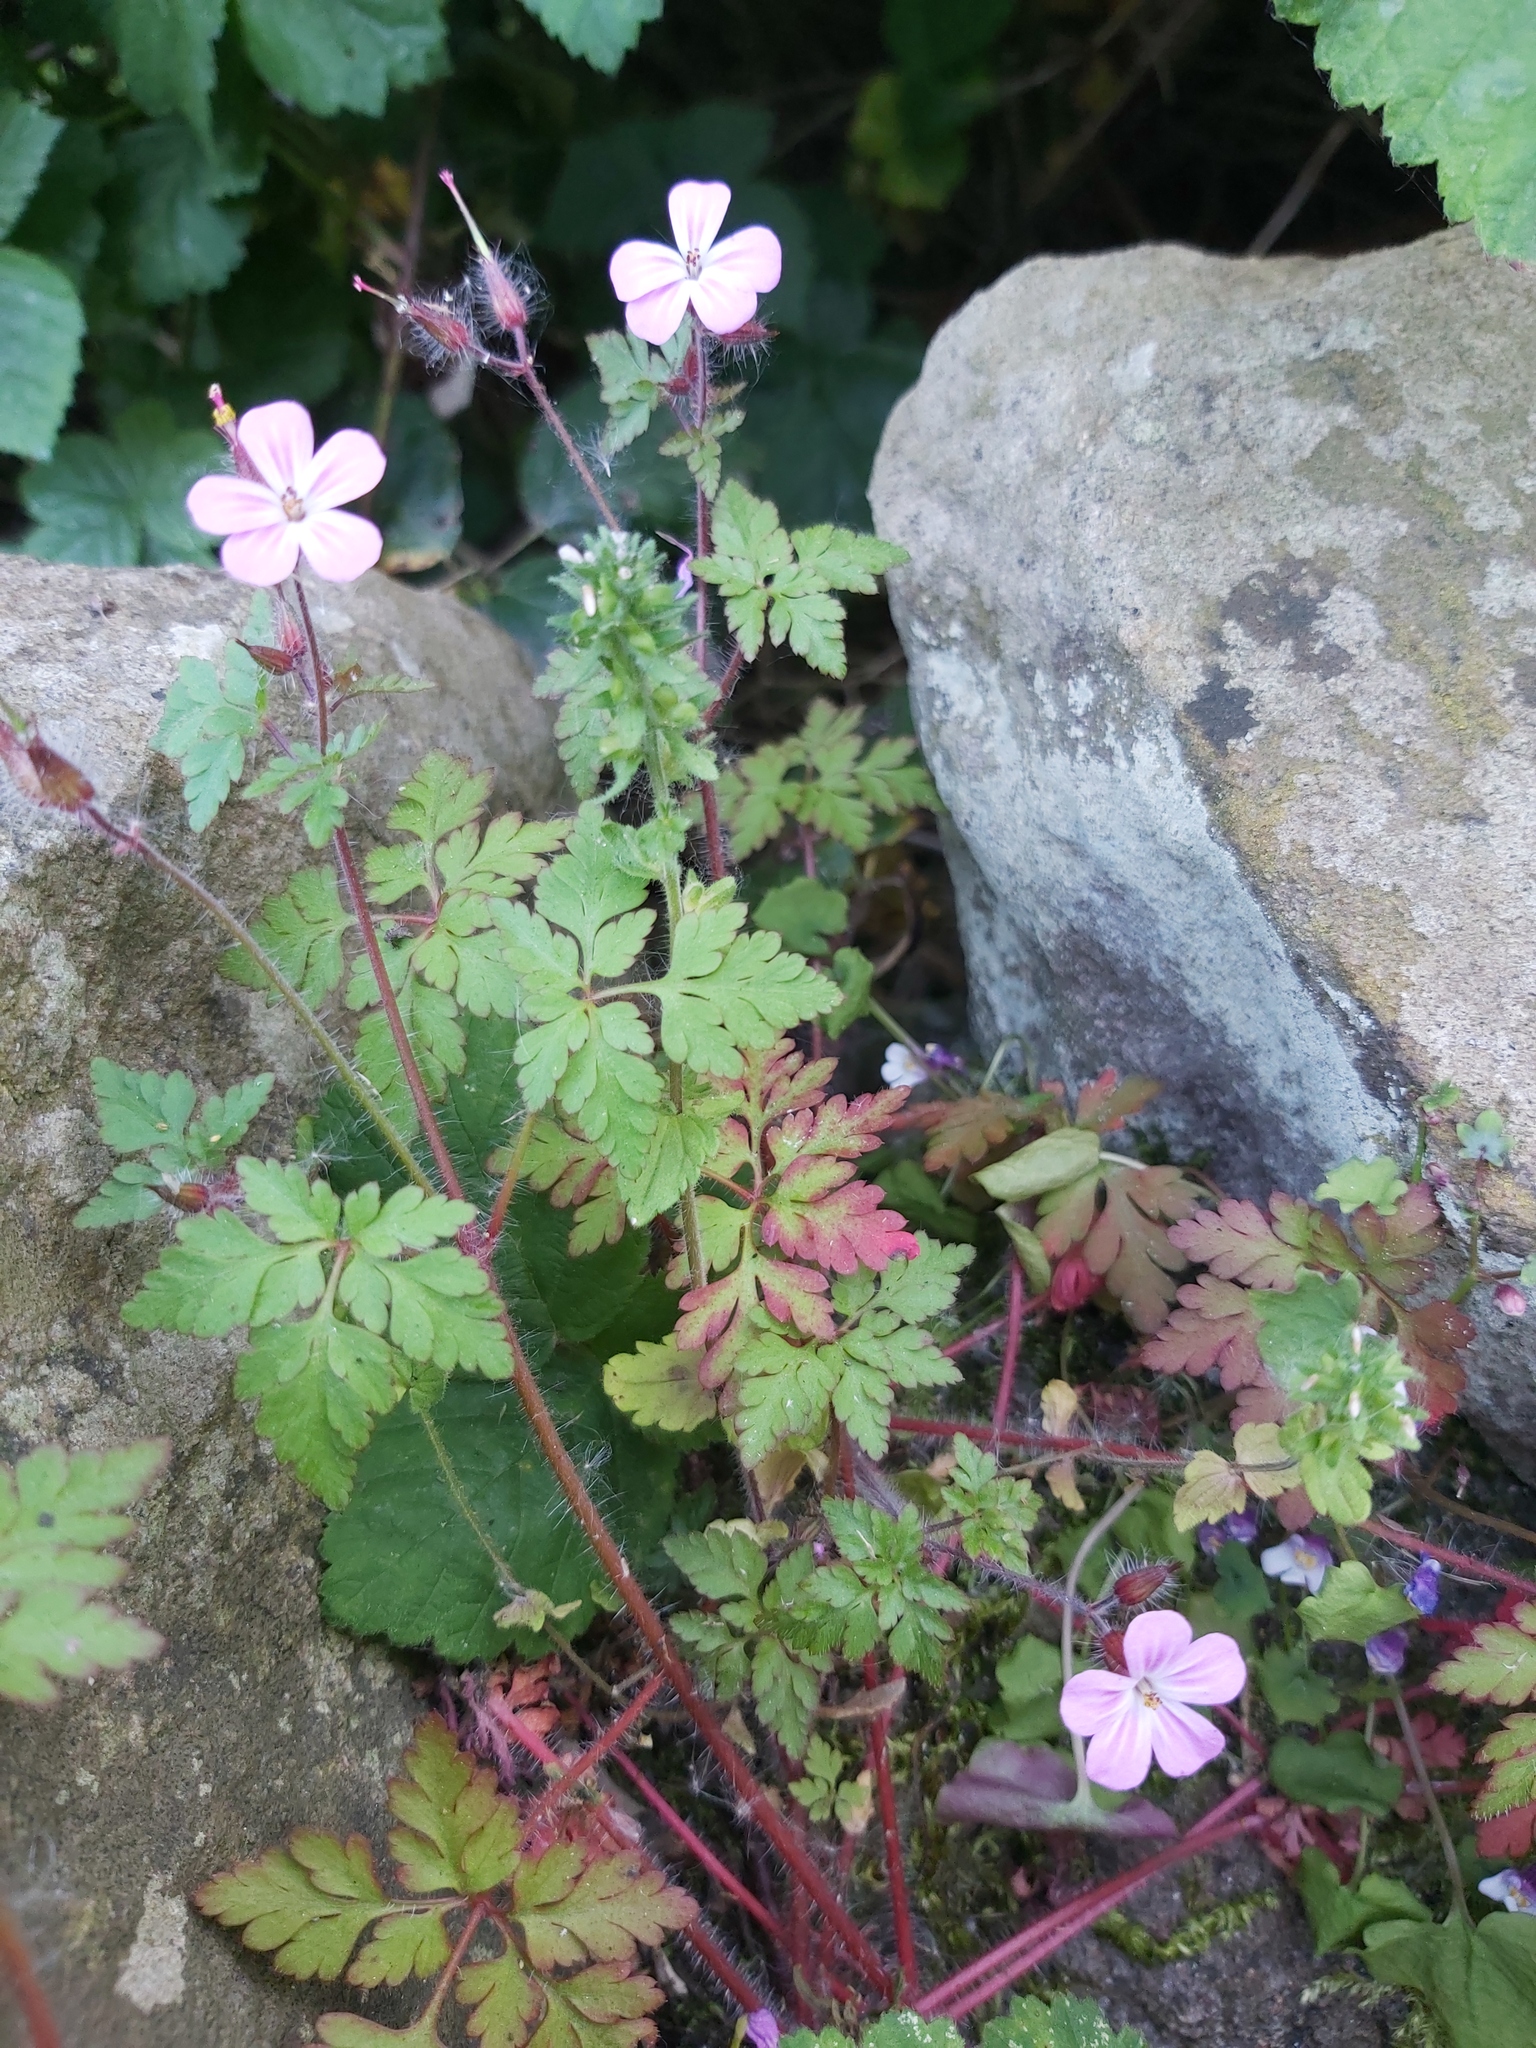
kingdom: Plantae
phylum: Tracheophyta
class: Magnoliopsida
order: Geraniales
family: Geraniaceae
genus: Geranium
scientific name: Geranium robertianum
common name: Herb-robert
